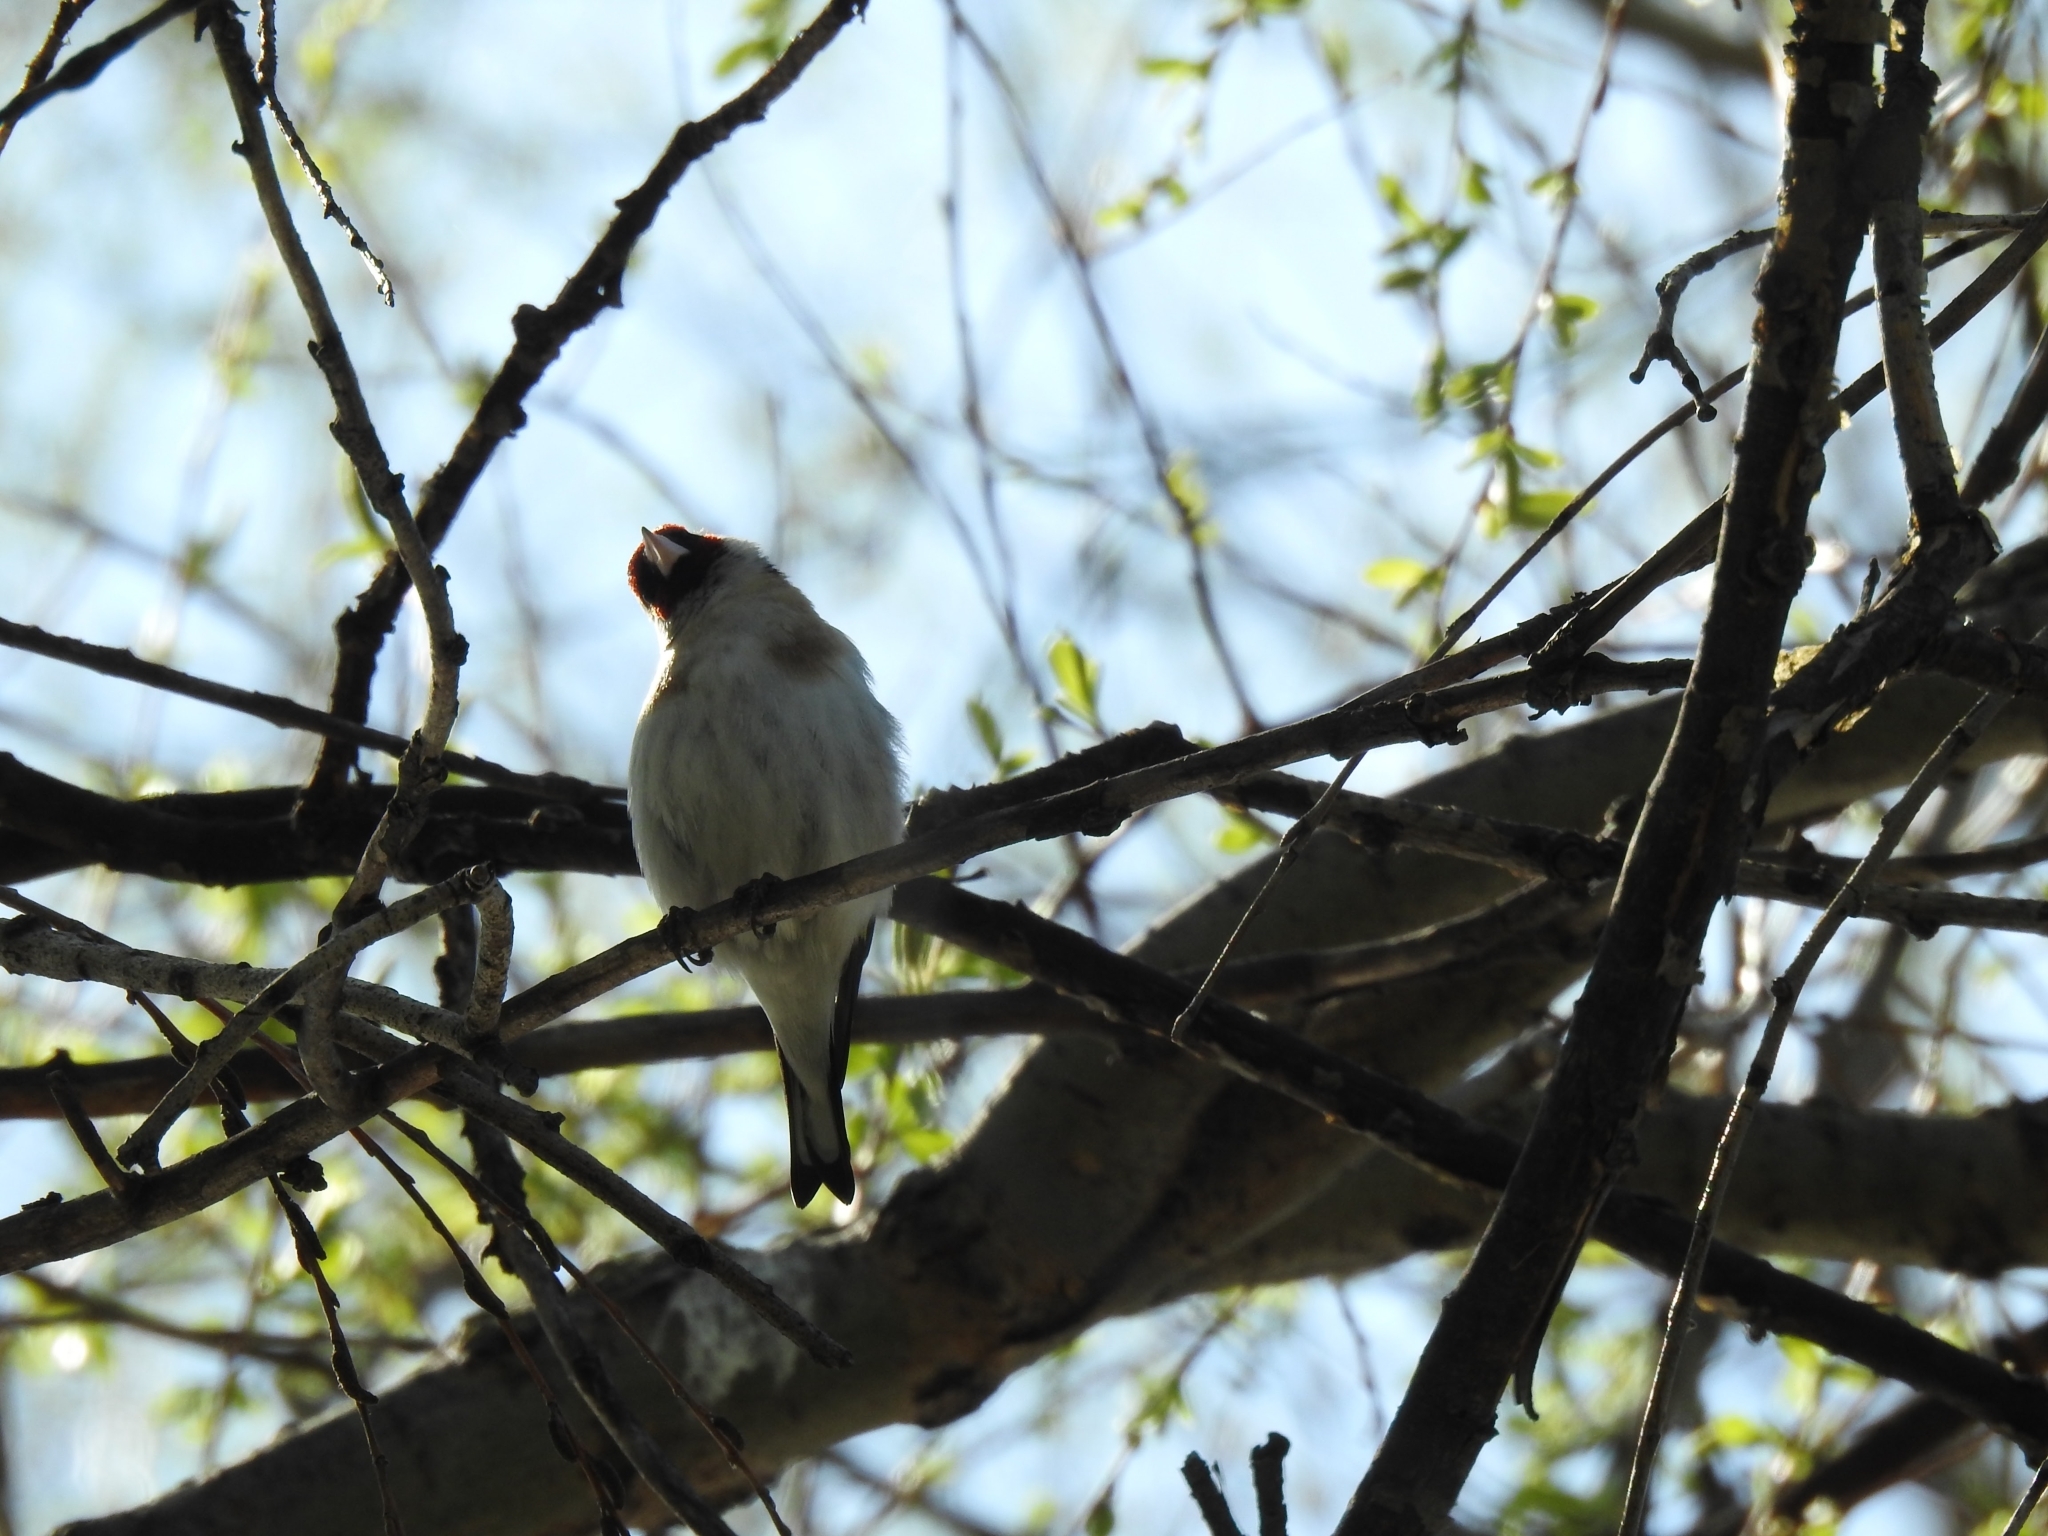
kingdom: Animalia
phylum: Chordata
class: Aves
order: Passeriformes
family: Fringillidae
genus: Carduelis
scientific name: Carduelis carduelis
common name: European goldfinch
